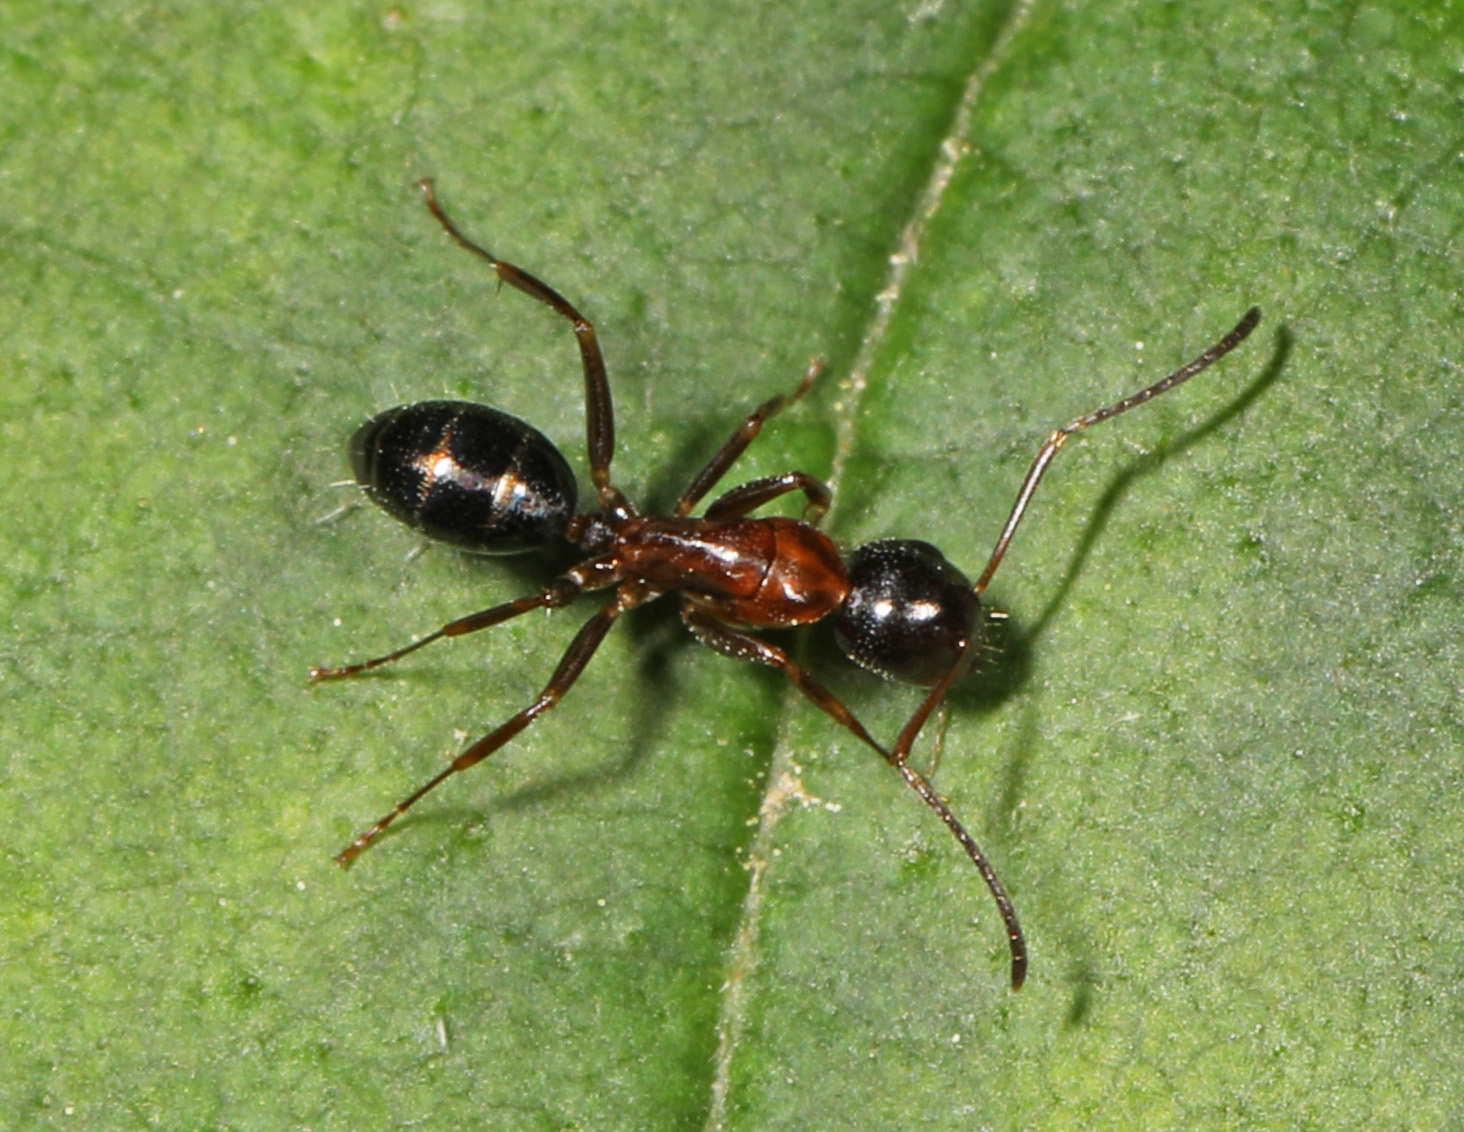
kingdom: Animalia
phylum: Arthropoda
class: Insecta
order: Hymenoptera
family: Formicidae
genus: Camponotus
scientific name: Camponotus nearcticus
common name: Smaller carpenter ant
